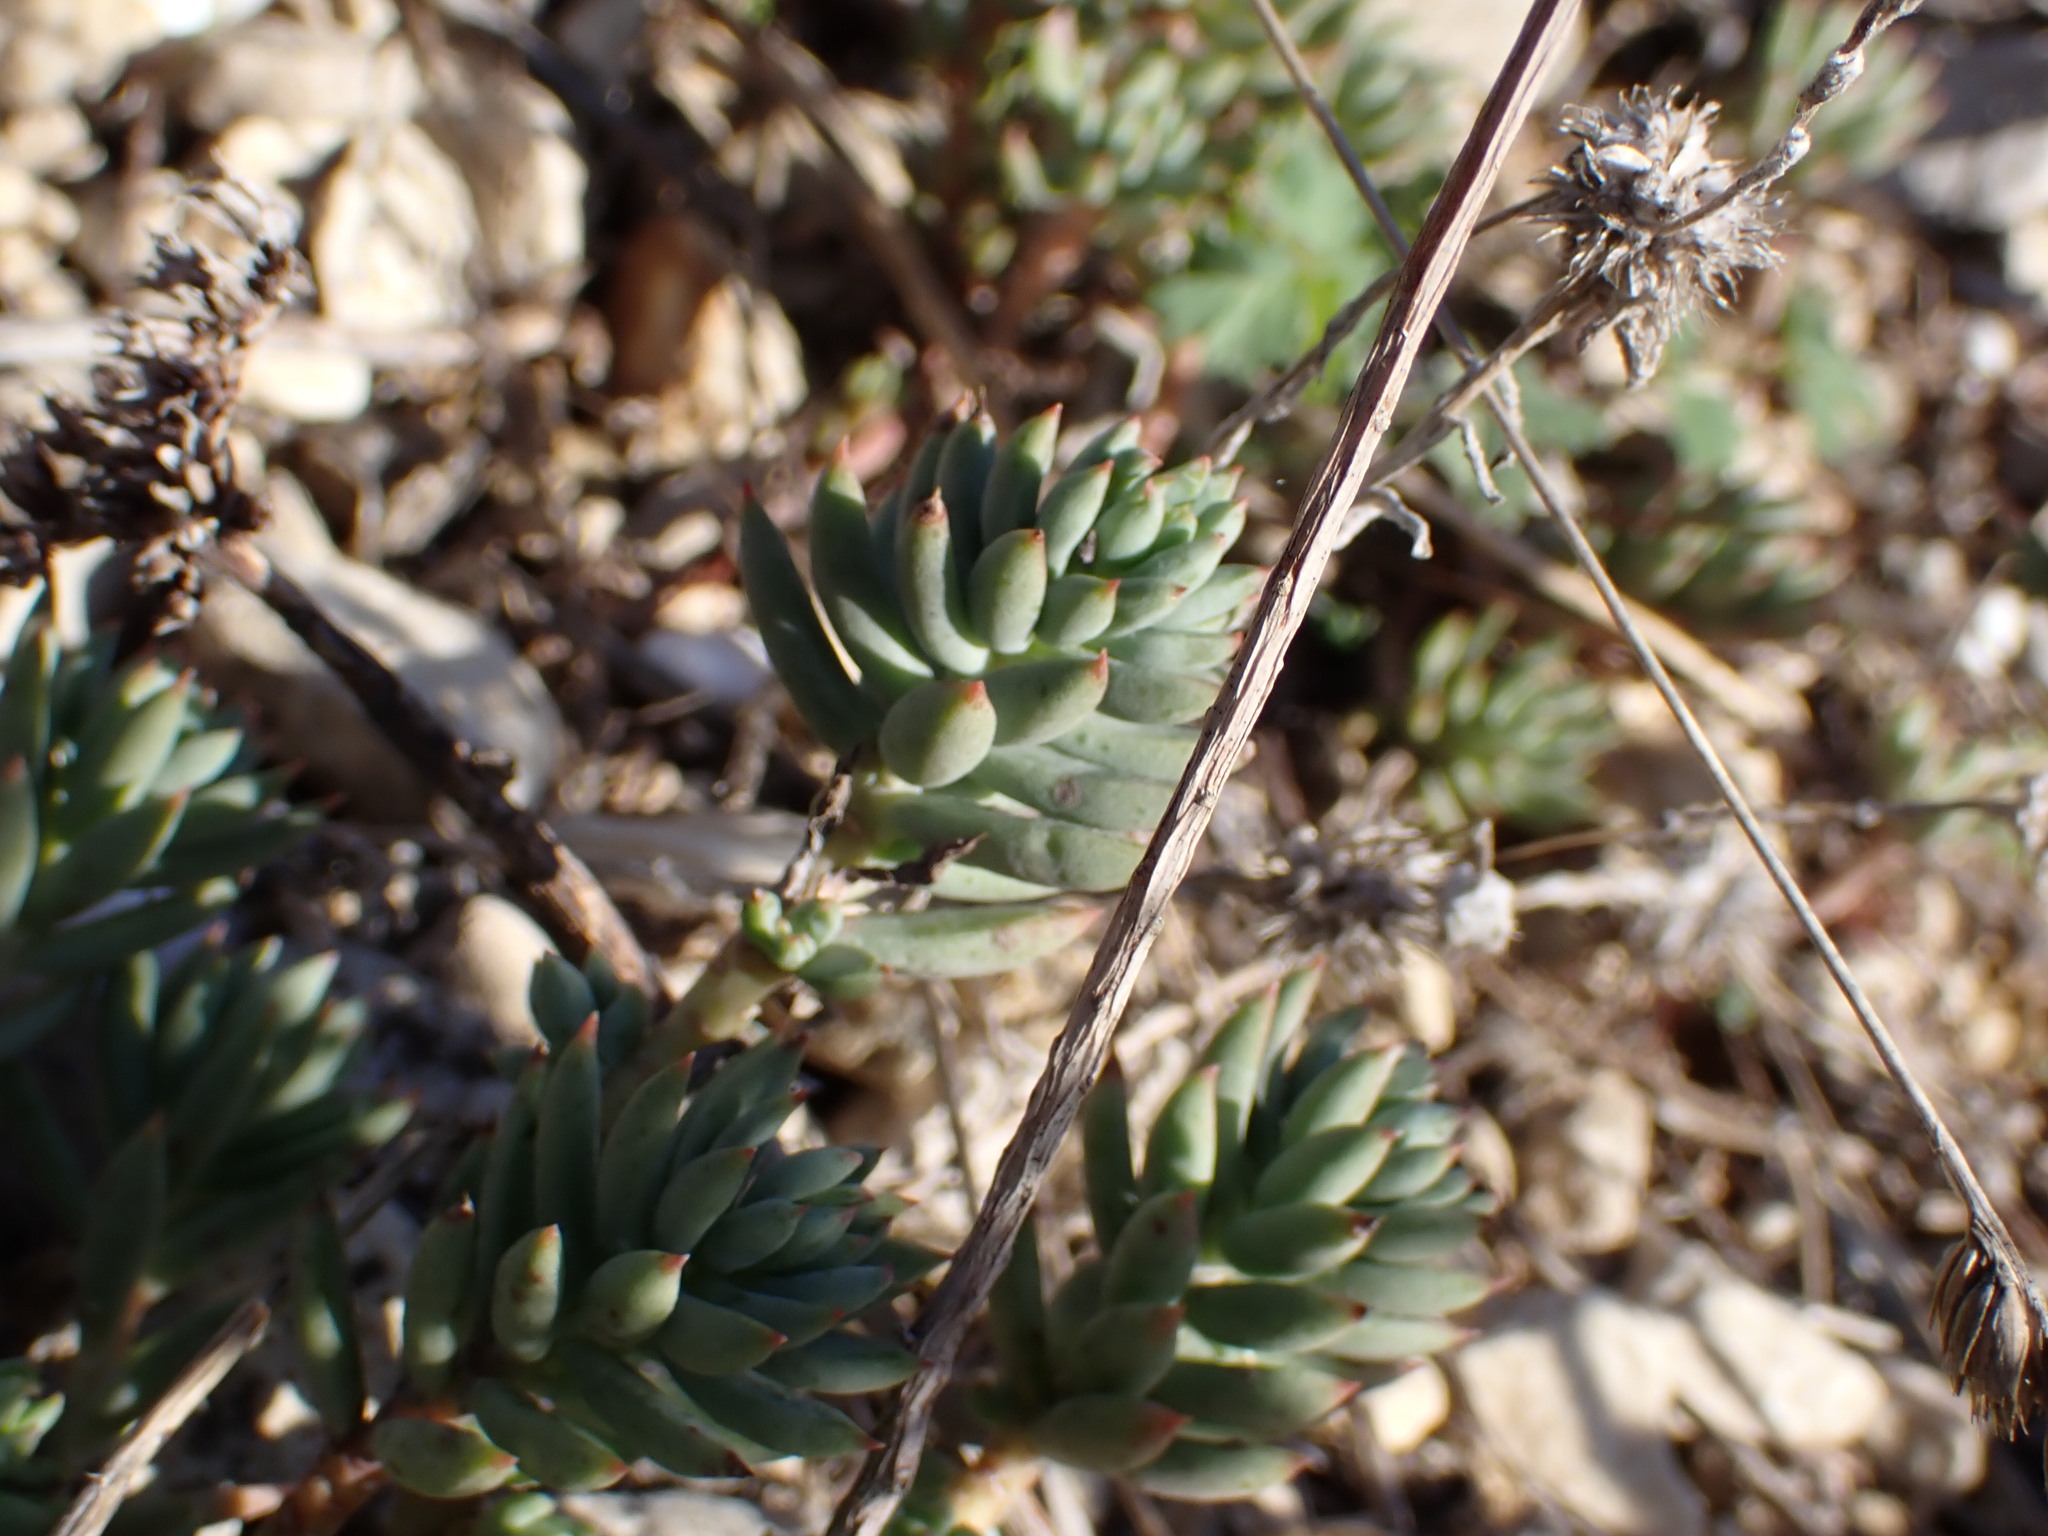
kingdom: Plantae
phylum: Tracheophyta
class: Magnoliopsida
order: Saxifragales
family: Crassulaceae
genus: Petrosedum
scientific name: Petrosedum sediforme
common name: Pale stonecrop
